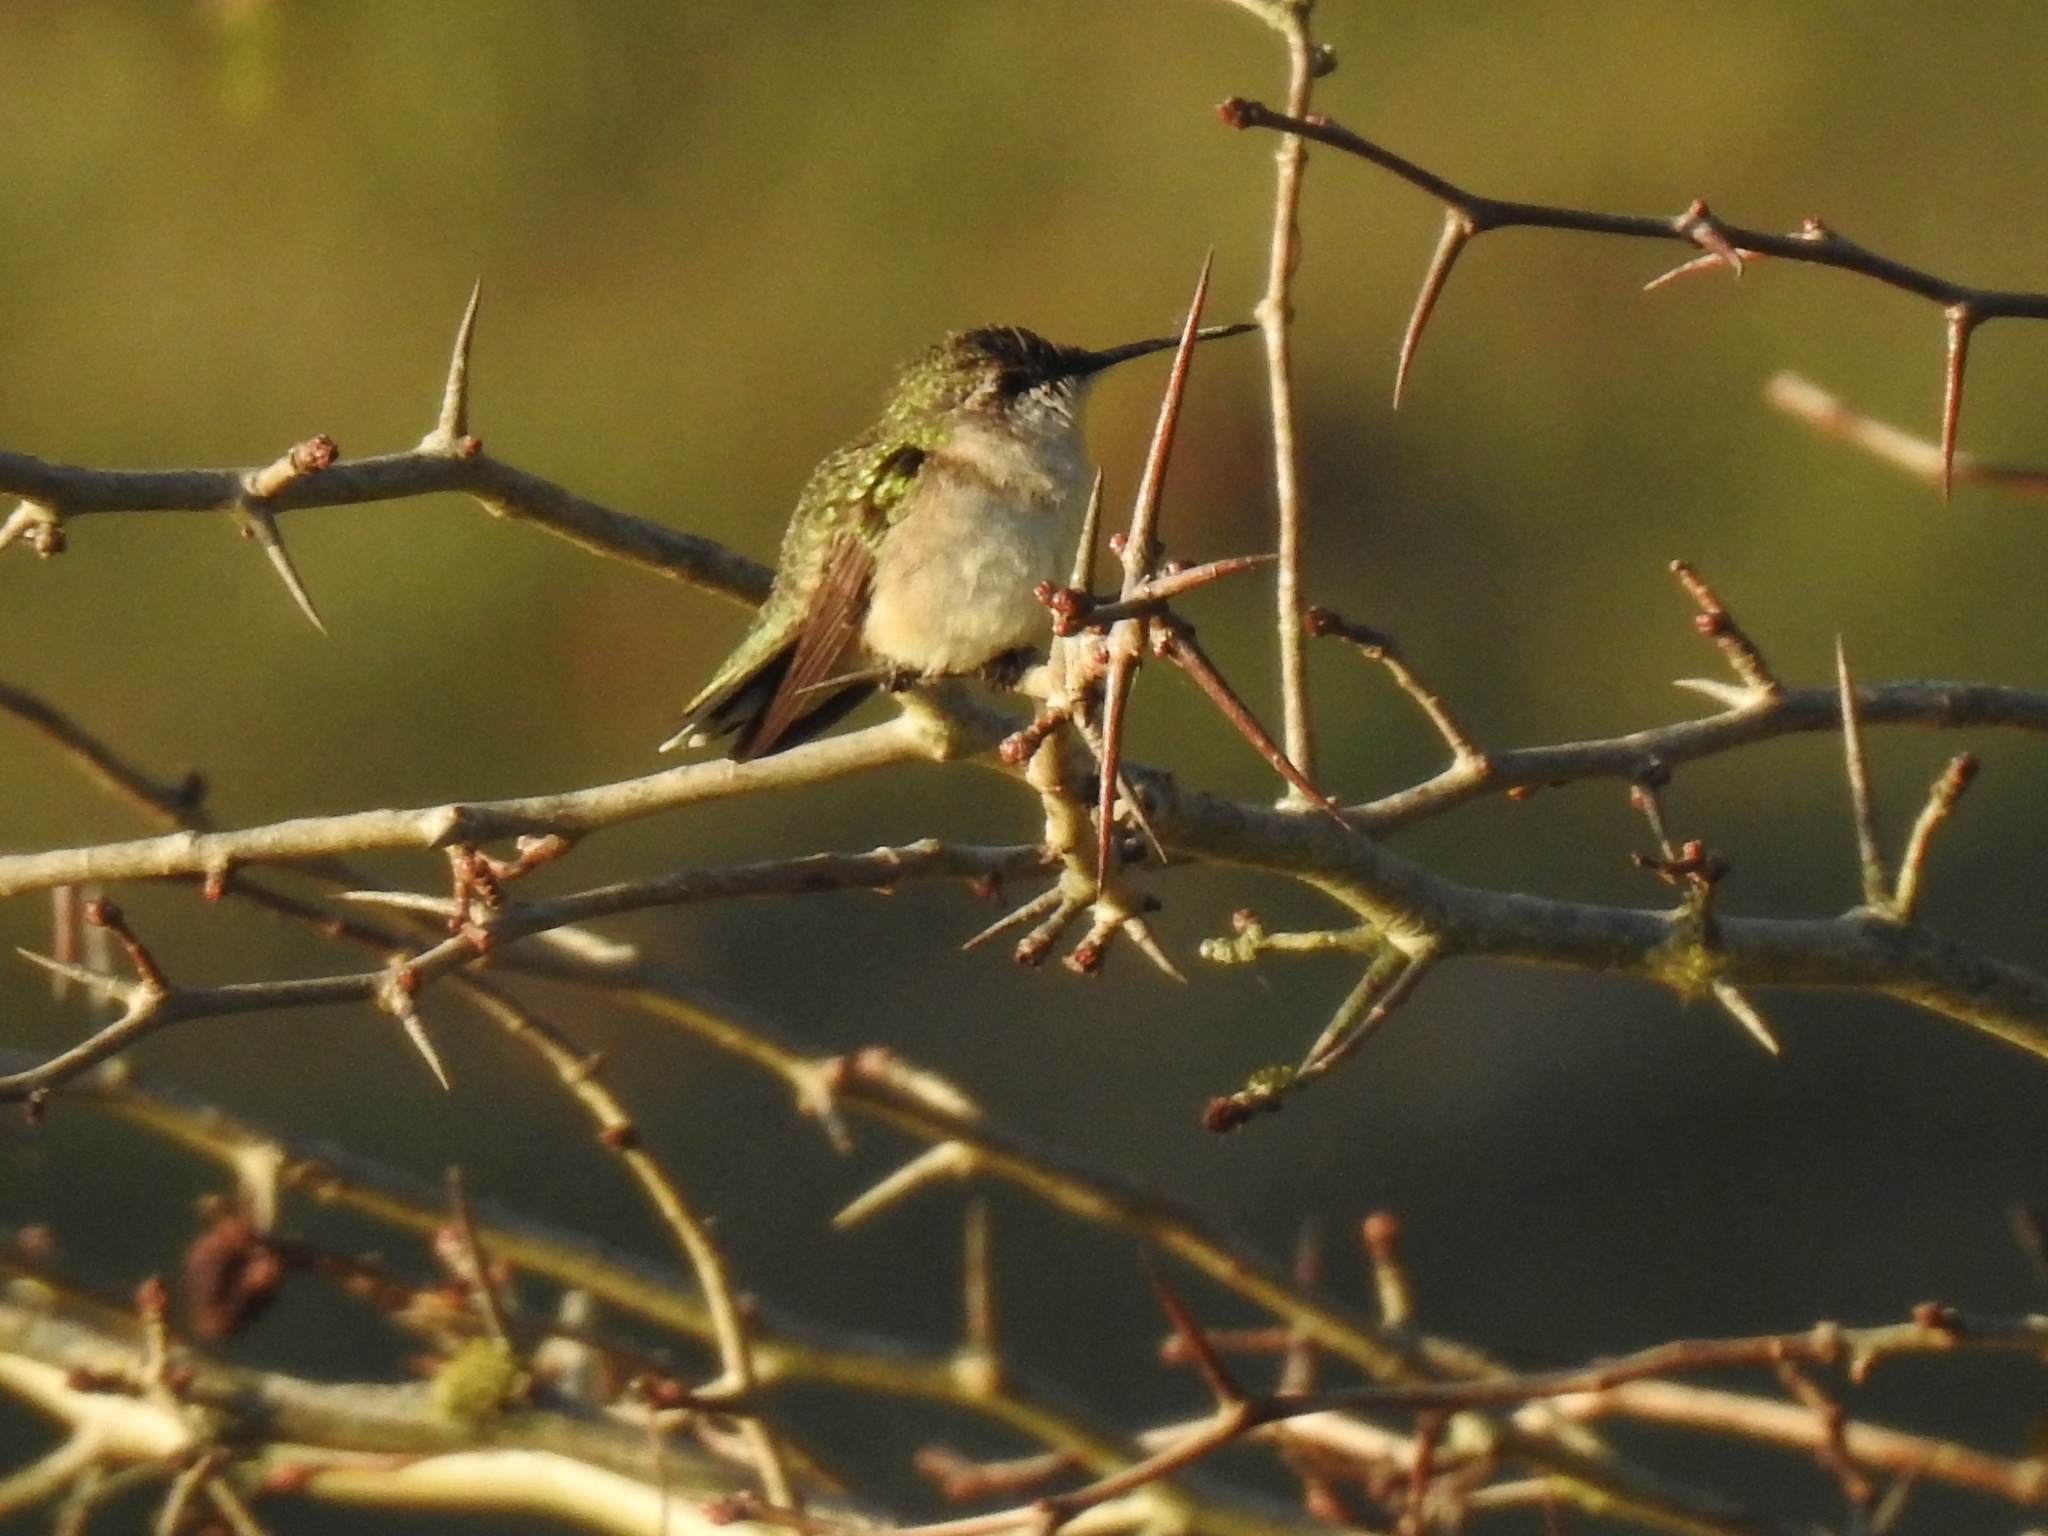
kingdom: Animalia
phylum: Chordata
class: Aves
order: Apodiformes
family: Trochilidae
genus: Archilochus
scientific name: Archilochus colubris
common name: Ruby-throated hummingbird
